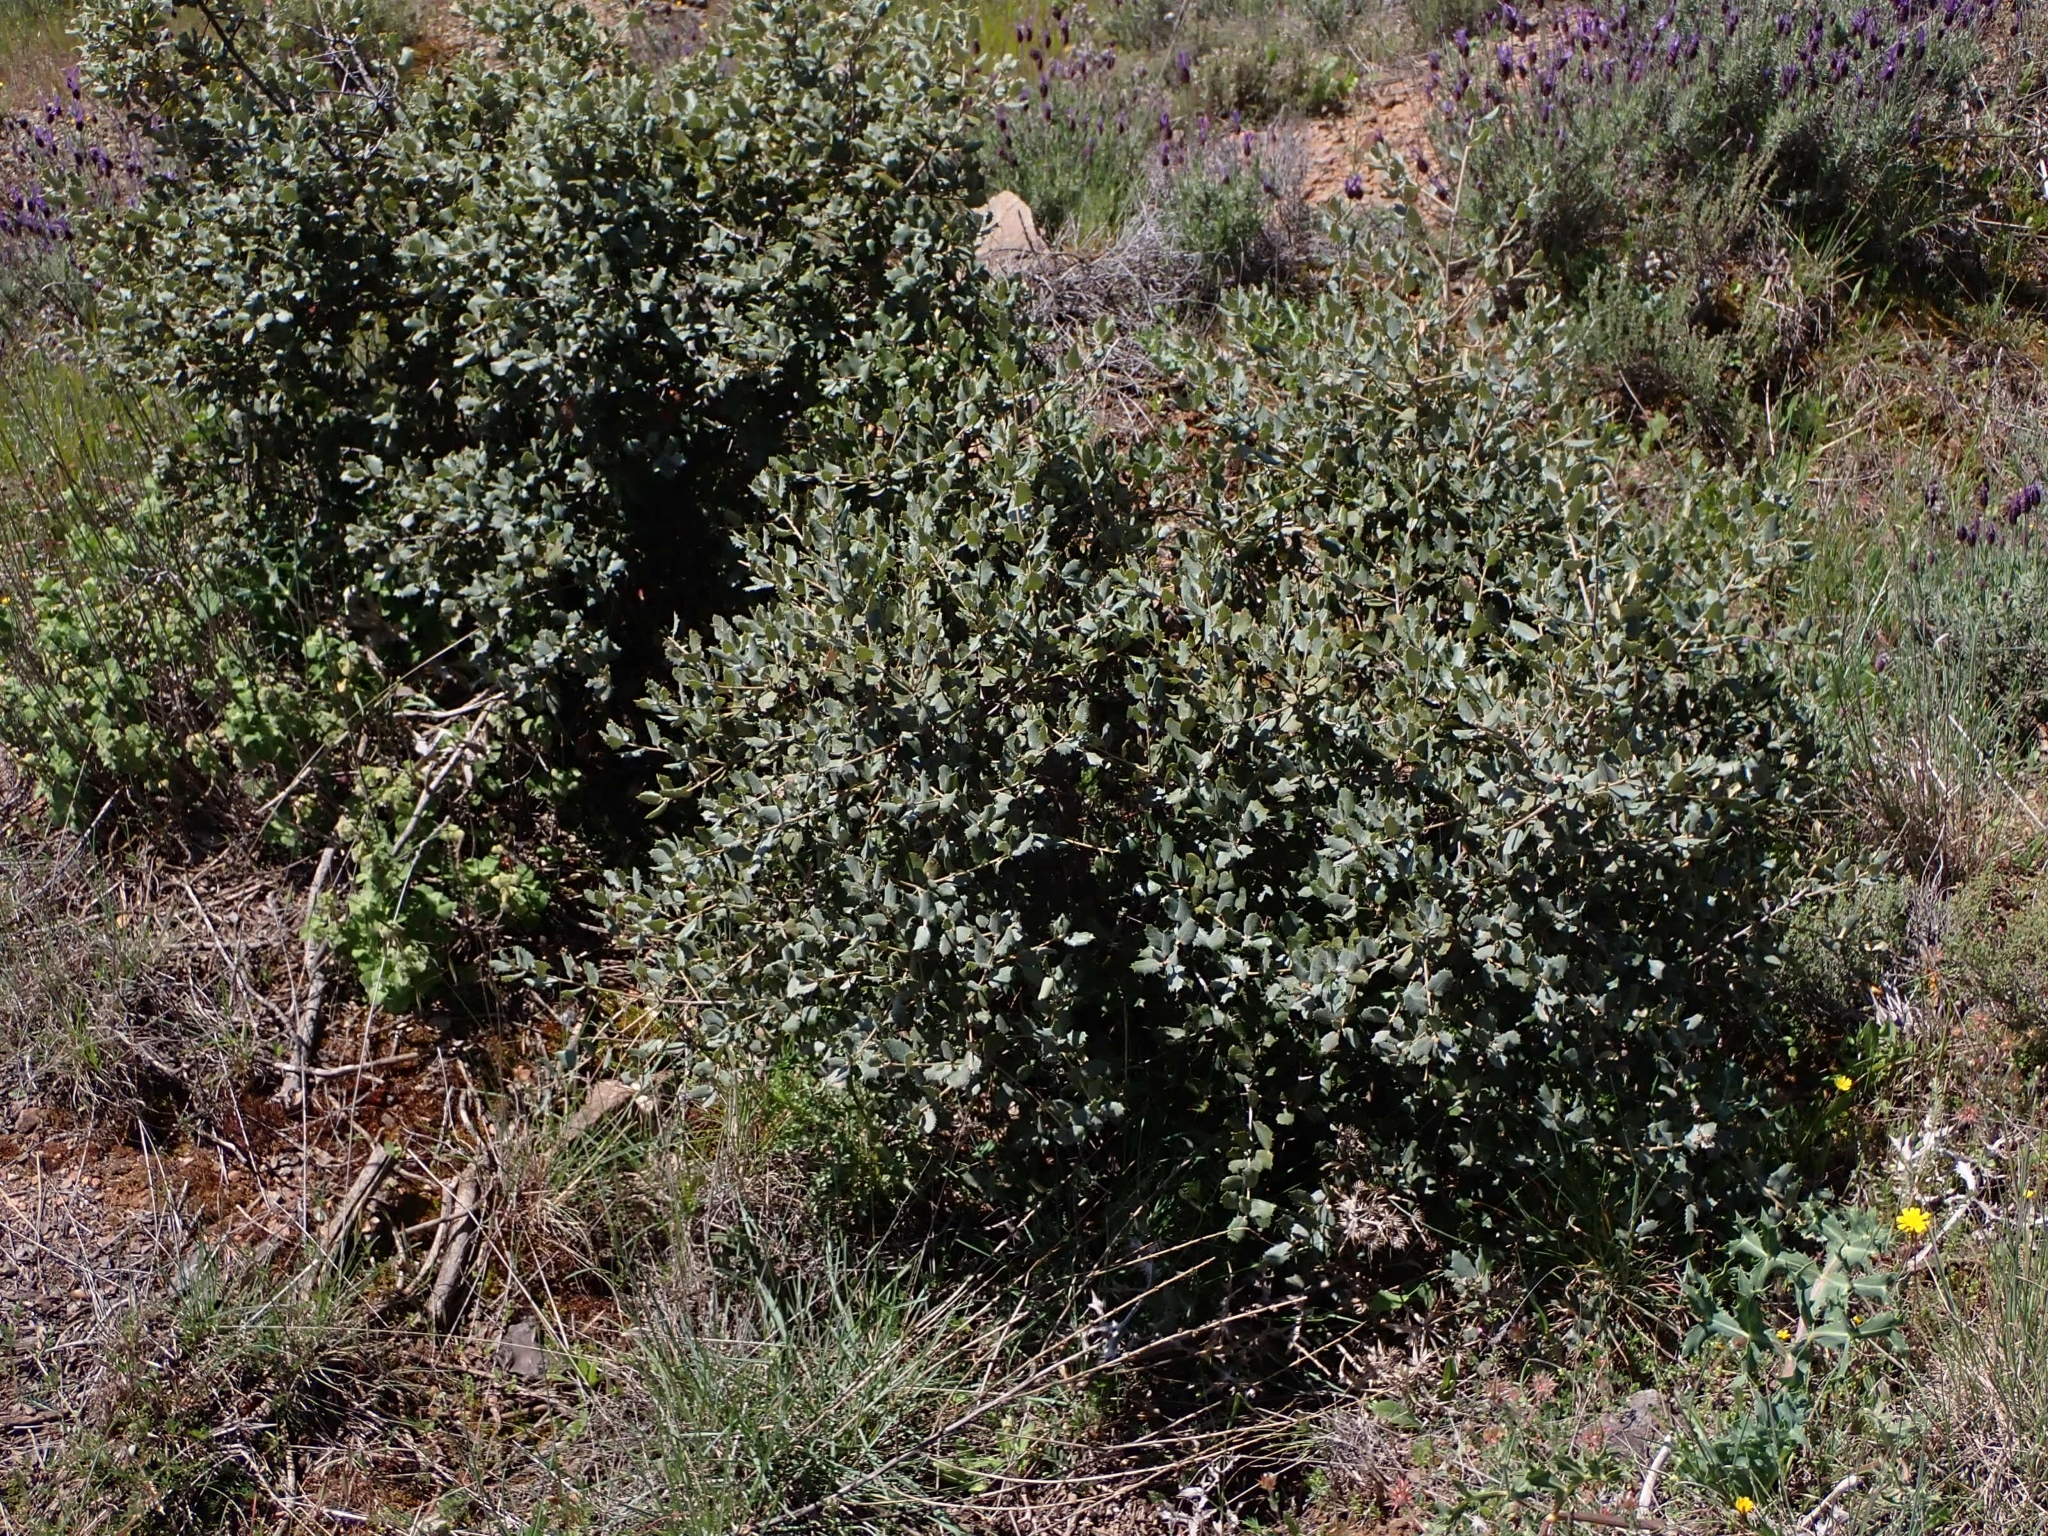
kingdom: Plantae
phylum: Tracheophyta
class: Magnoliopsida
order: Fagales
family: Fagaceae
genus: Quercus
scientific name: Quercus rotundifolia
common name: Holm oak
